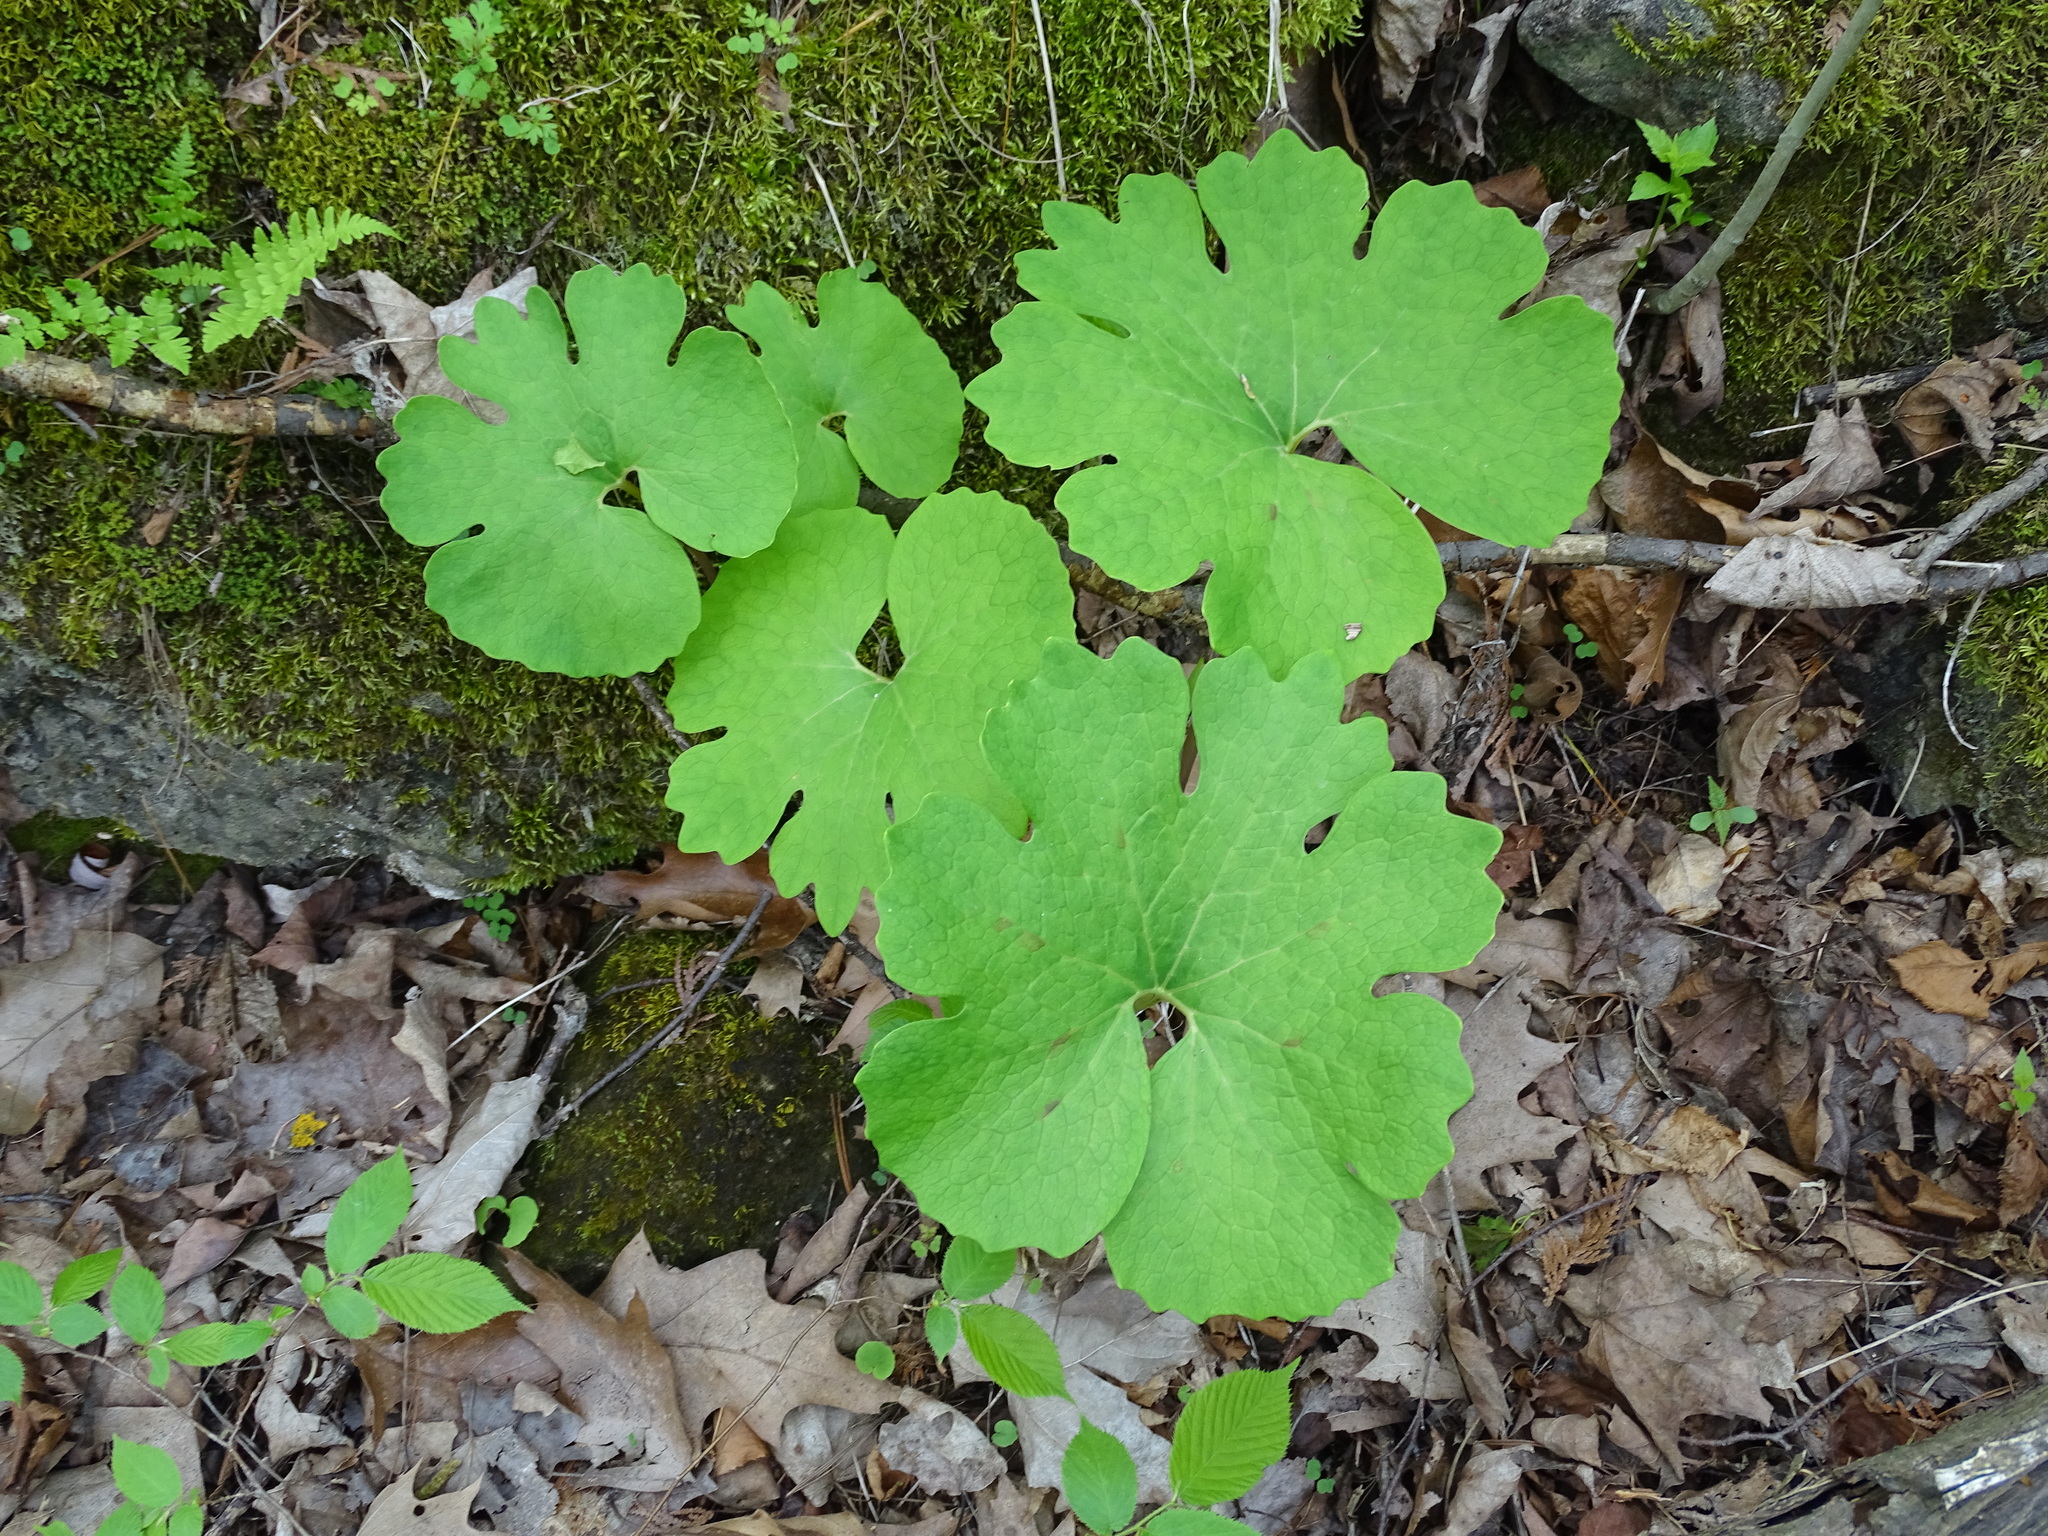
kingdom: Plantae
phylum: Tracheophyta
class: Magnoliopsida
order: Ranunculales
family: Papaveraceae
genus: Sanguinaria
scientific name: Sanguinaria canadensis
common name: Bloodroot
